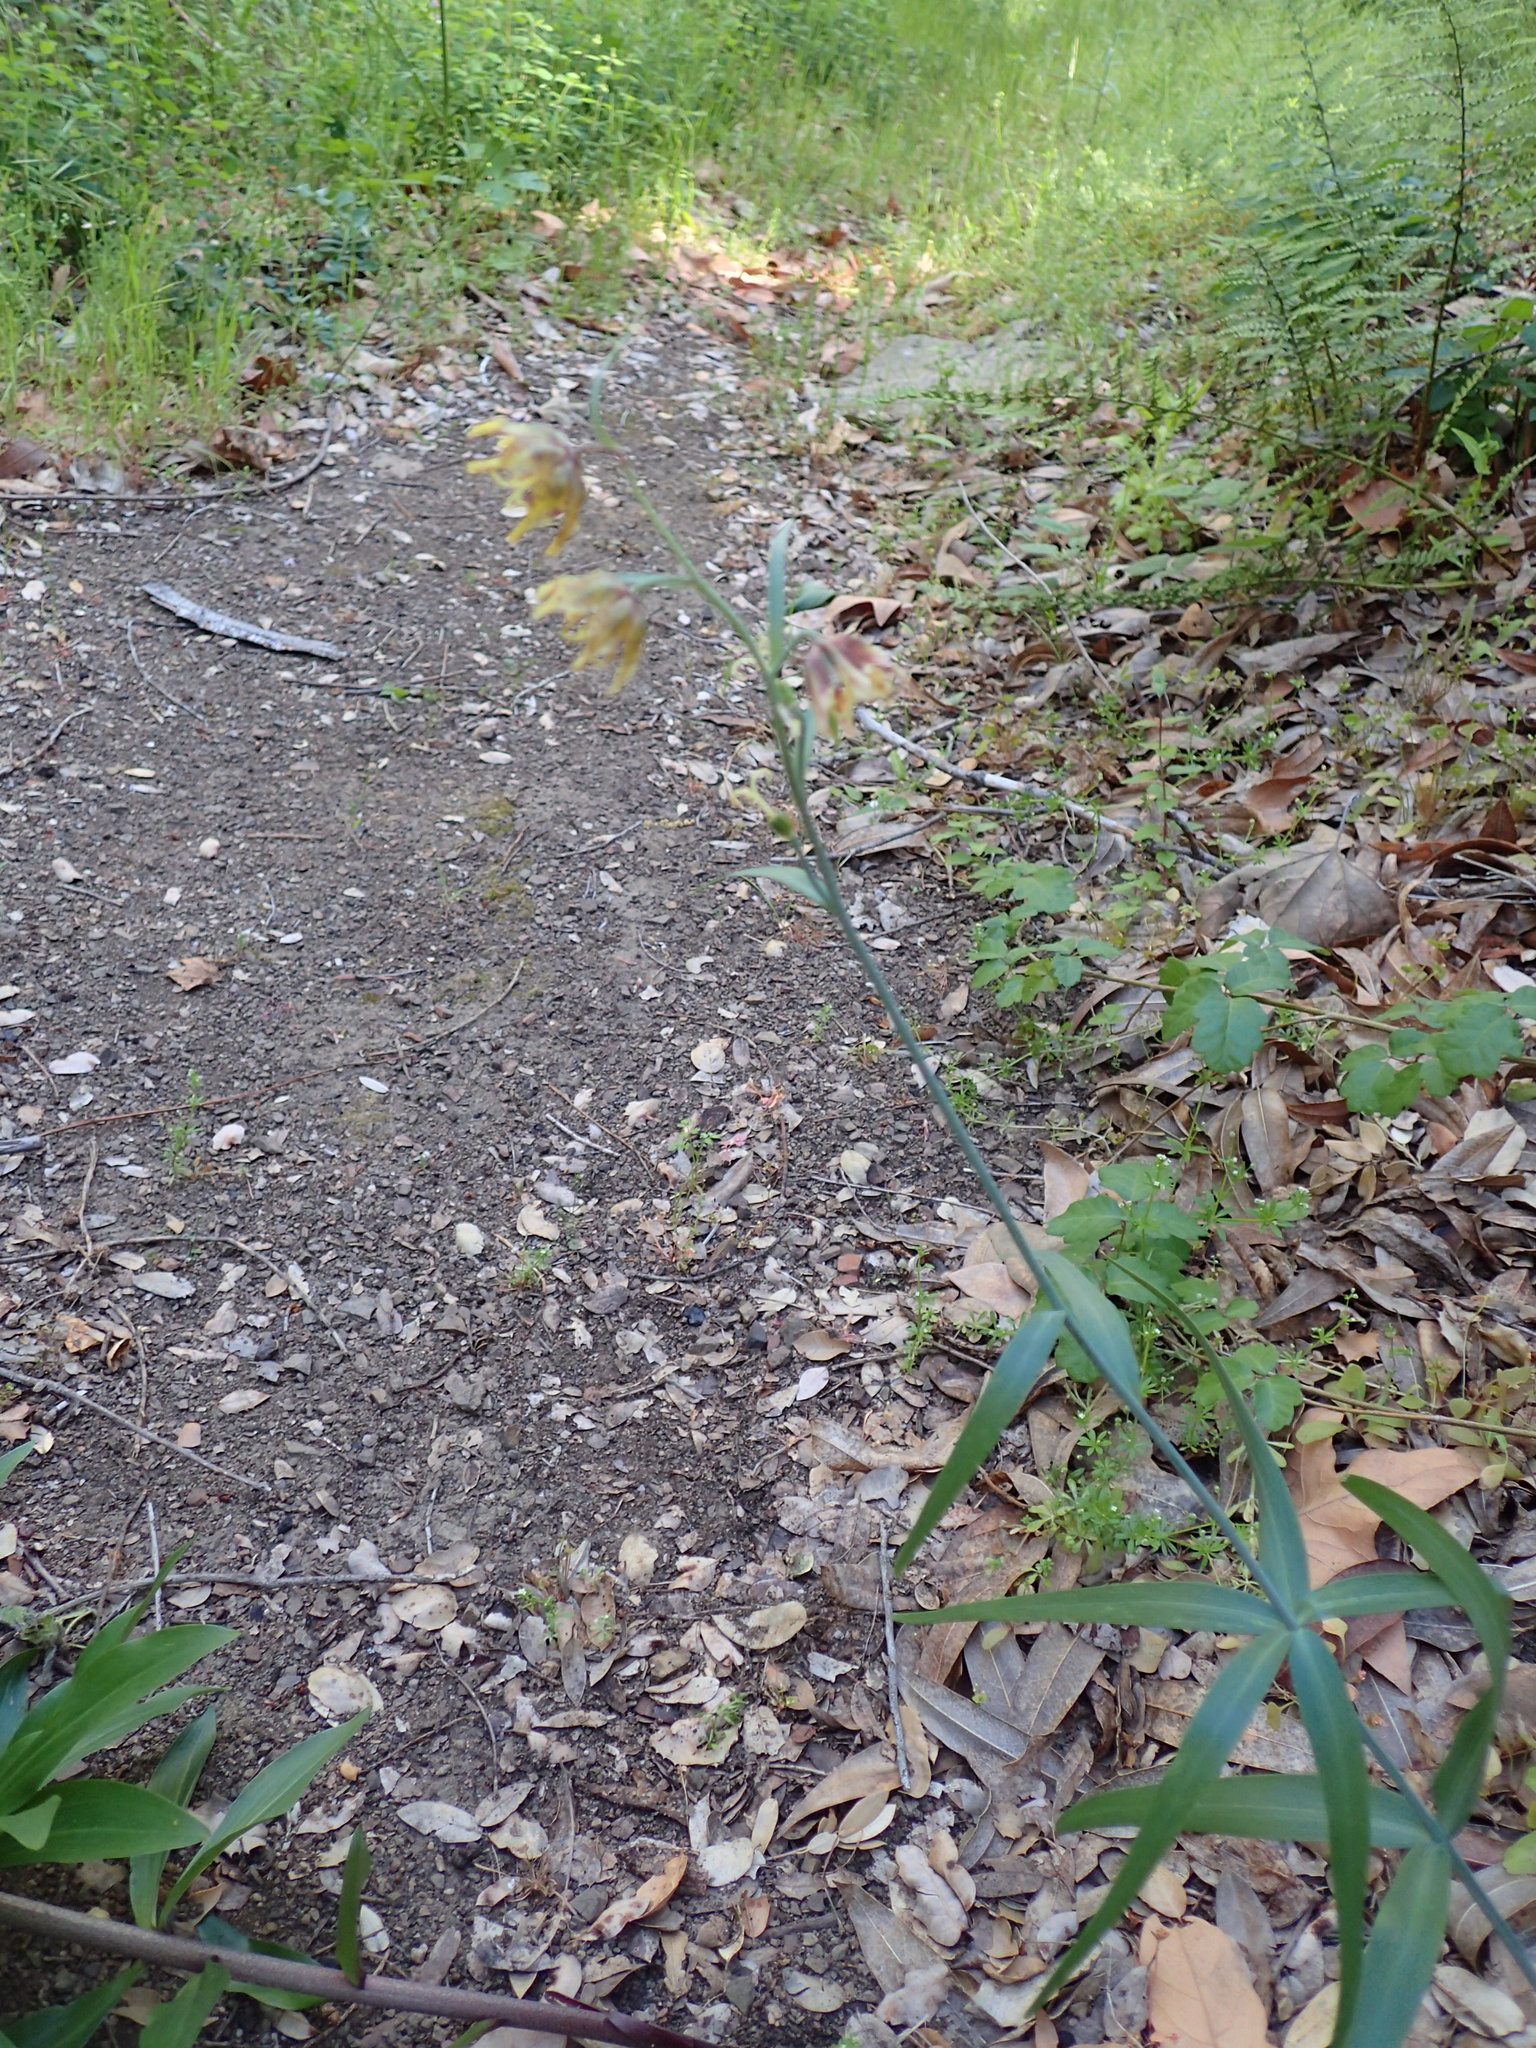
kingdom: Plantae
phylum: Tracheophyta
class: Liliopsida
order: Liliales
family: Liliaceae
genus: Fritillaria
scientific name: Fritillaria ojaiensis
